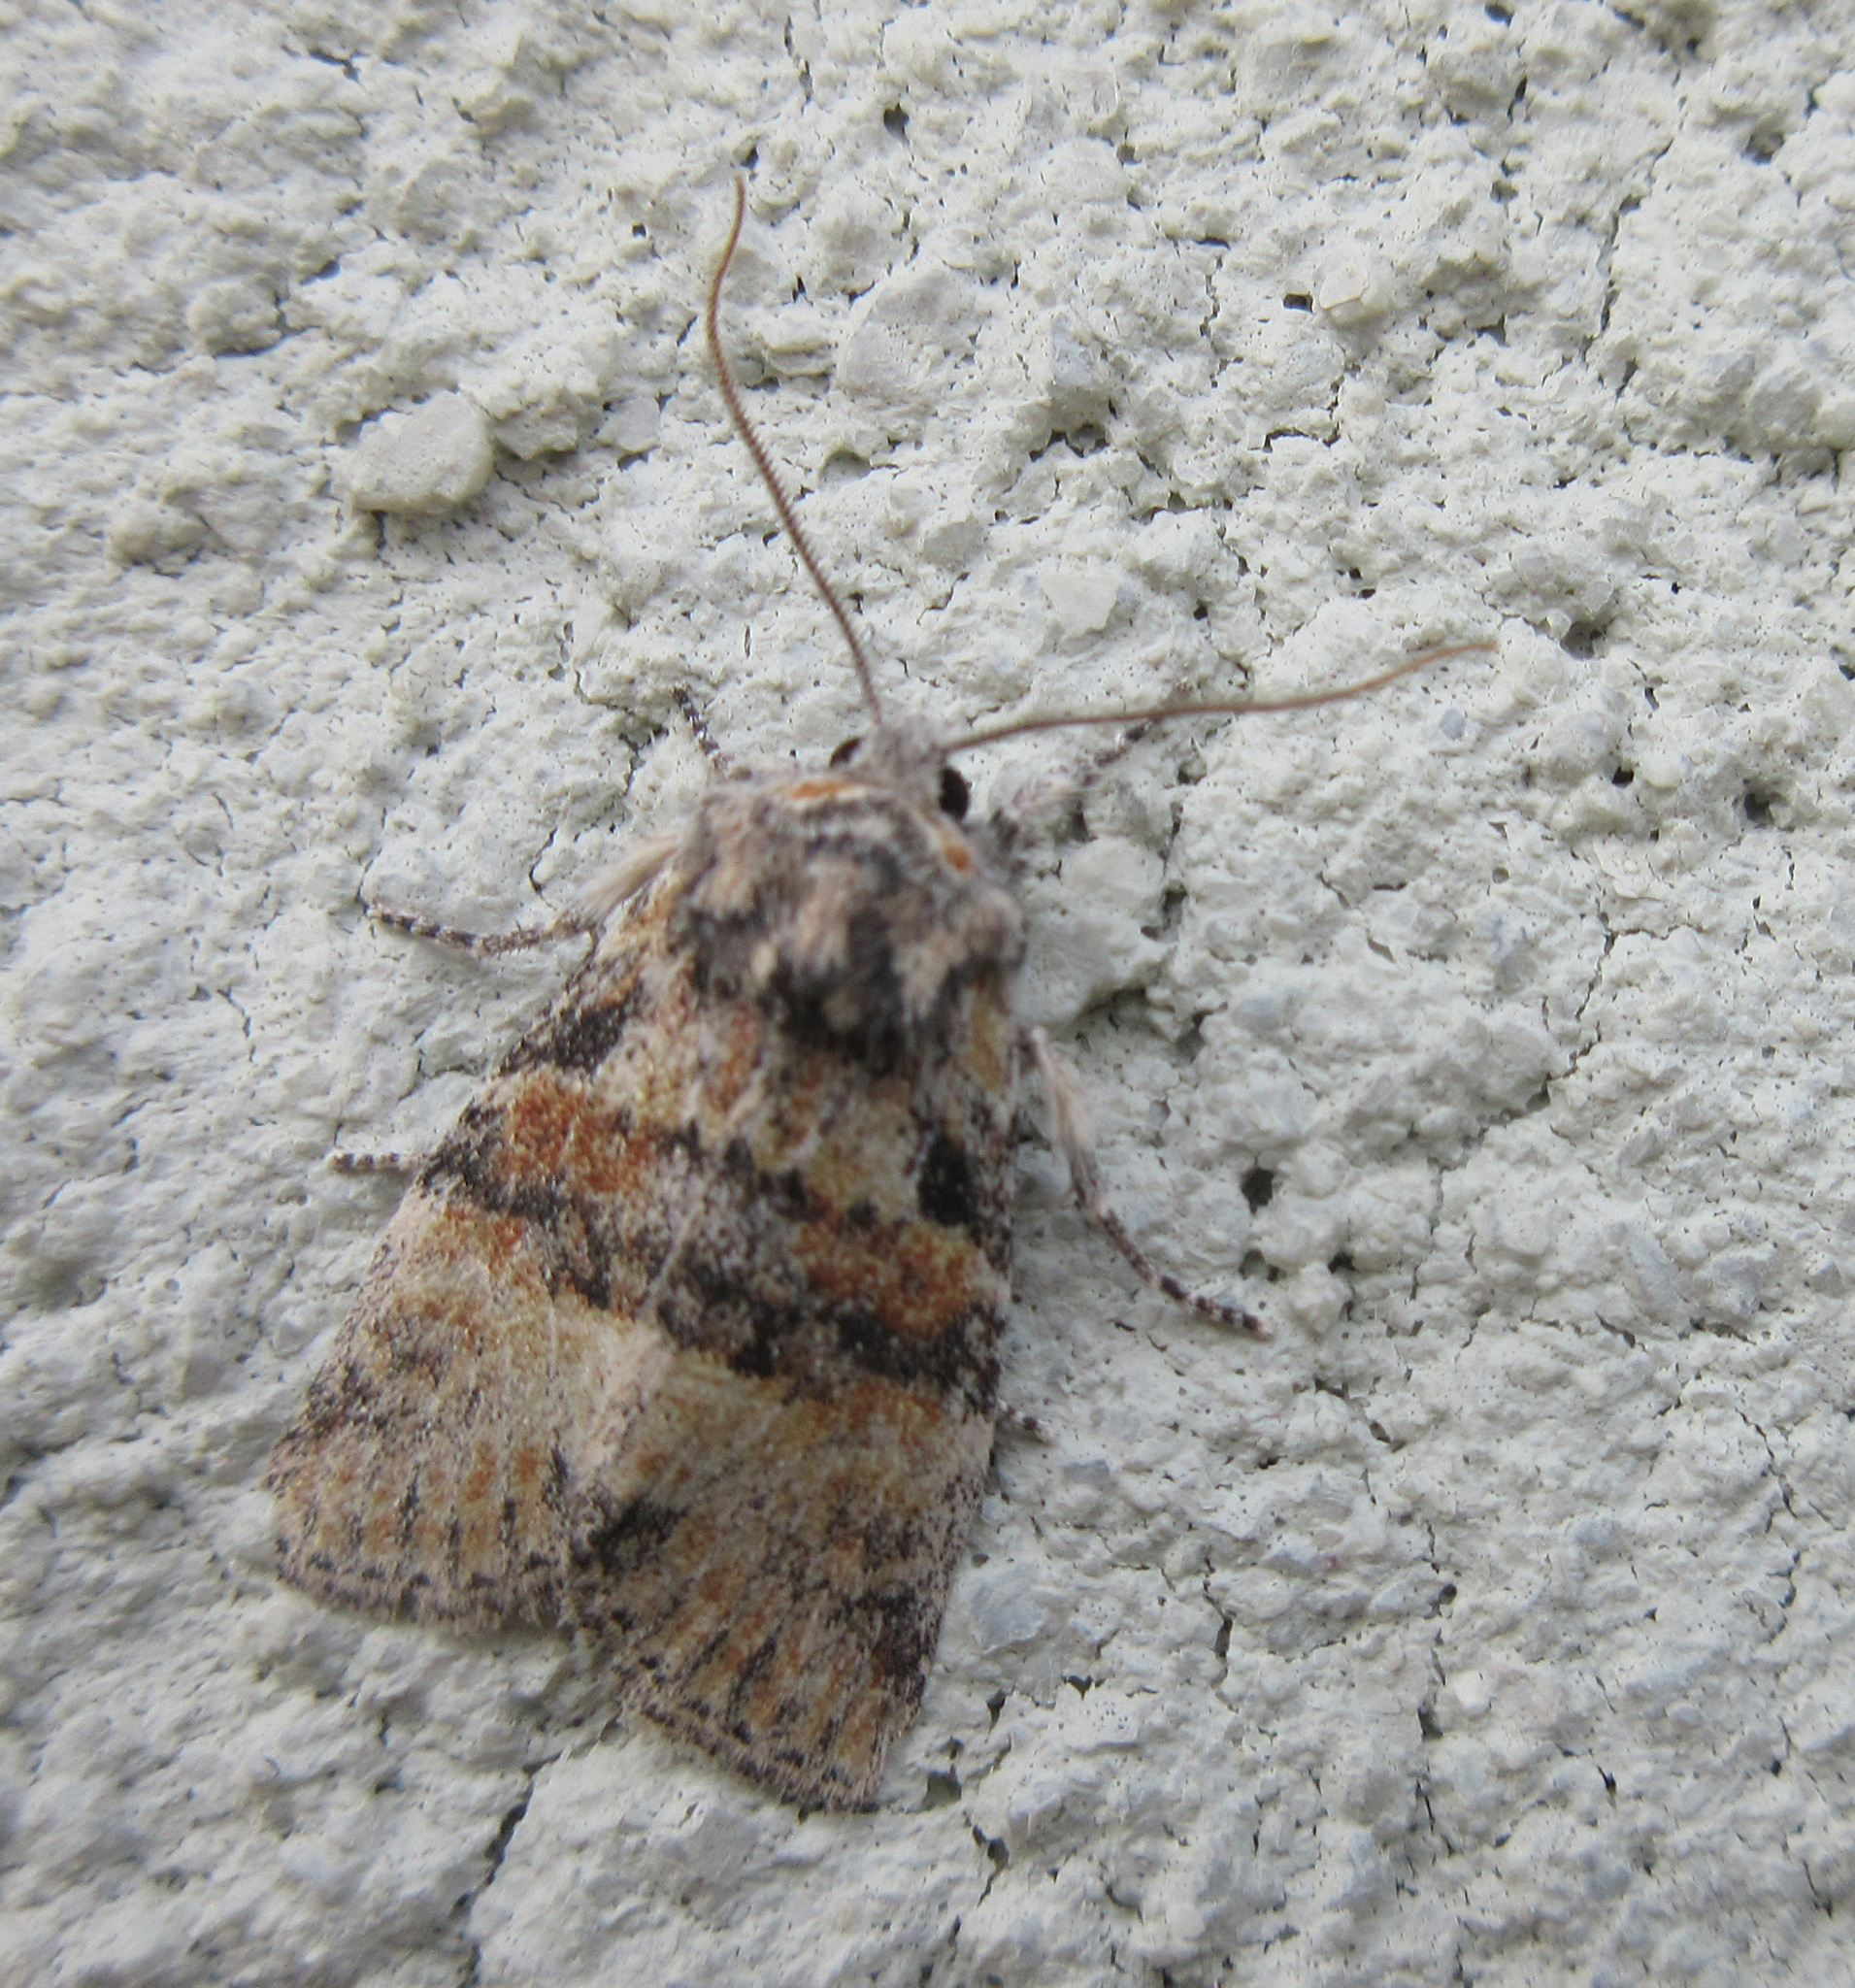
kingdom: Animalia
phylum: Arthropoda
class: Insecta
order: Lepidoptera
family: Noctuidae
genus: Brachylomia
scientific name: Brachylomia populi
